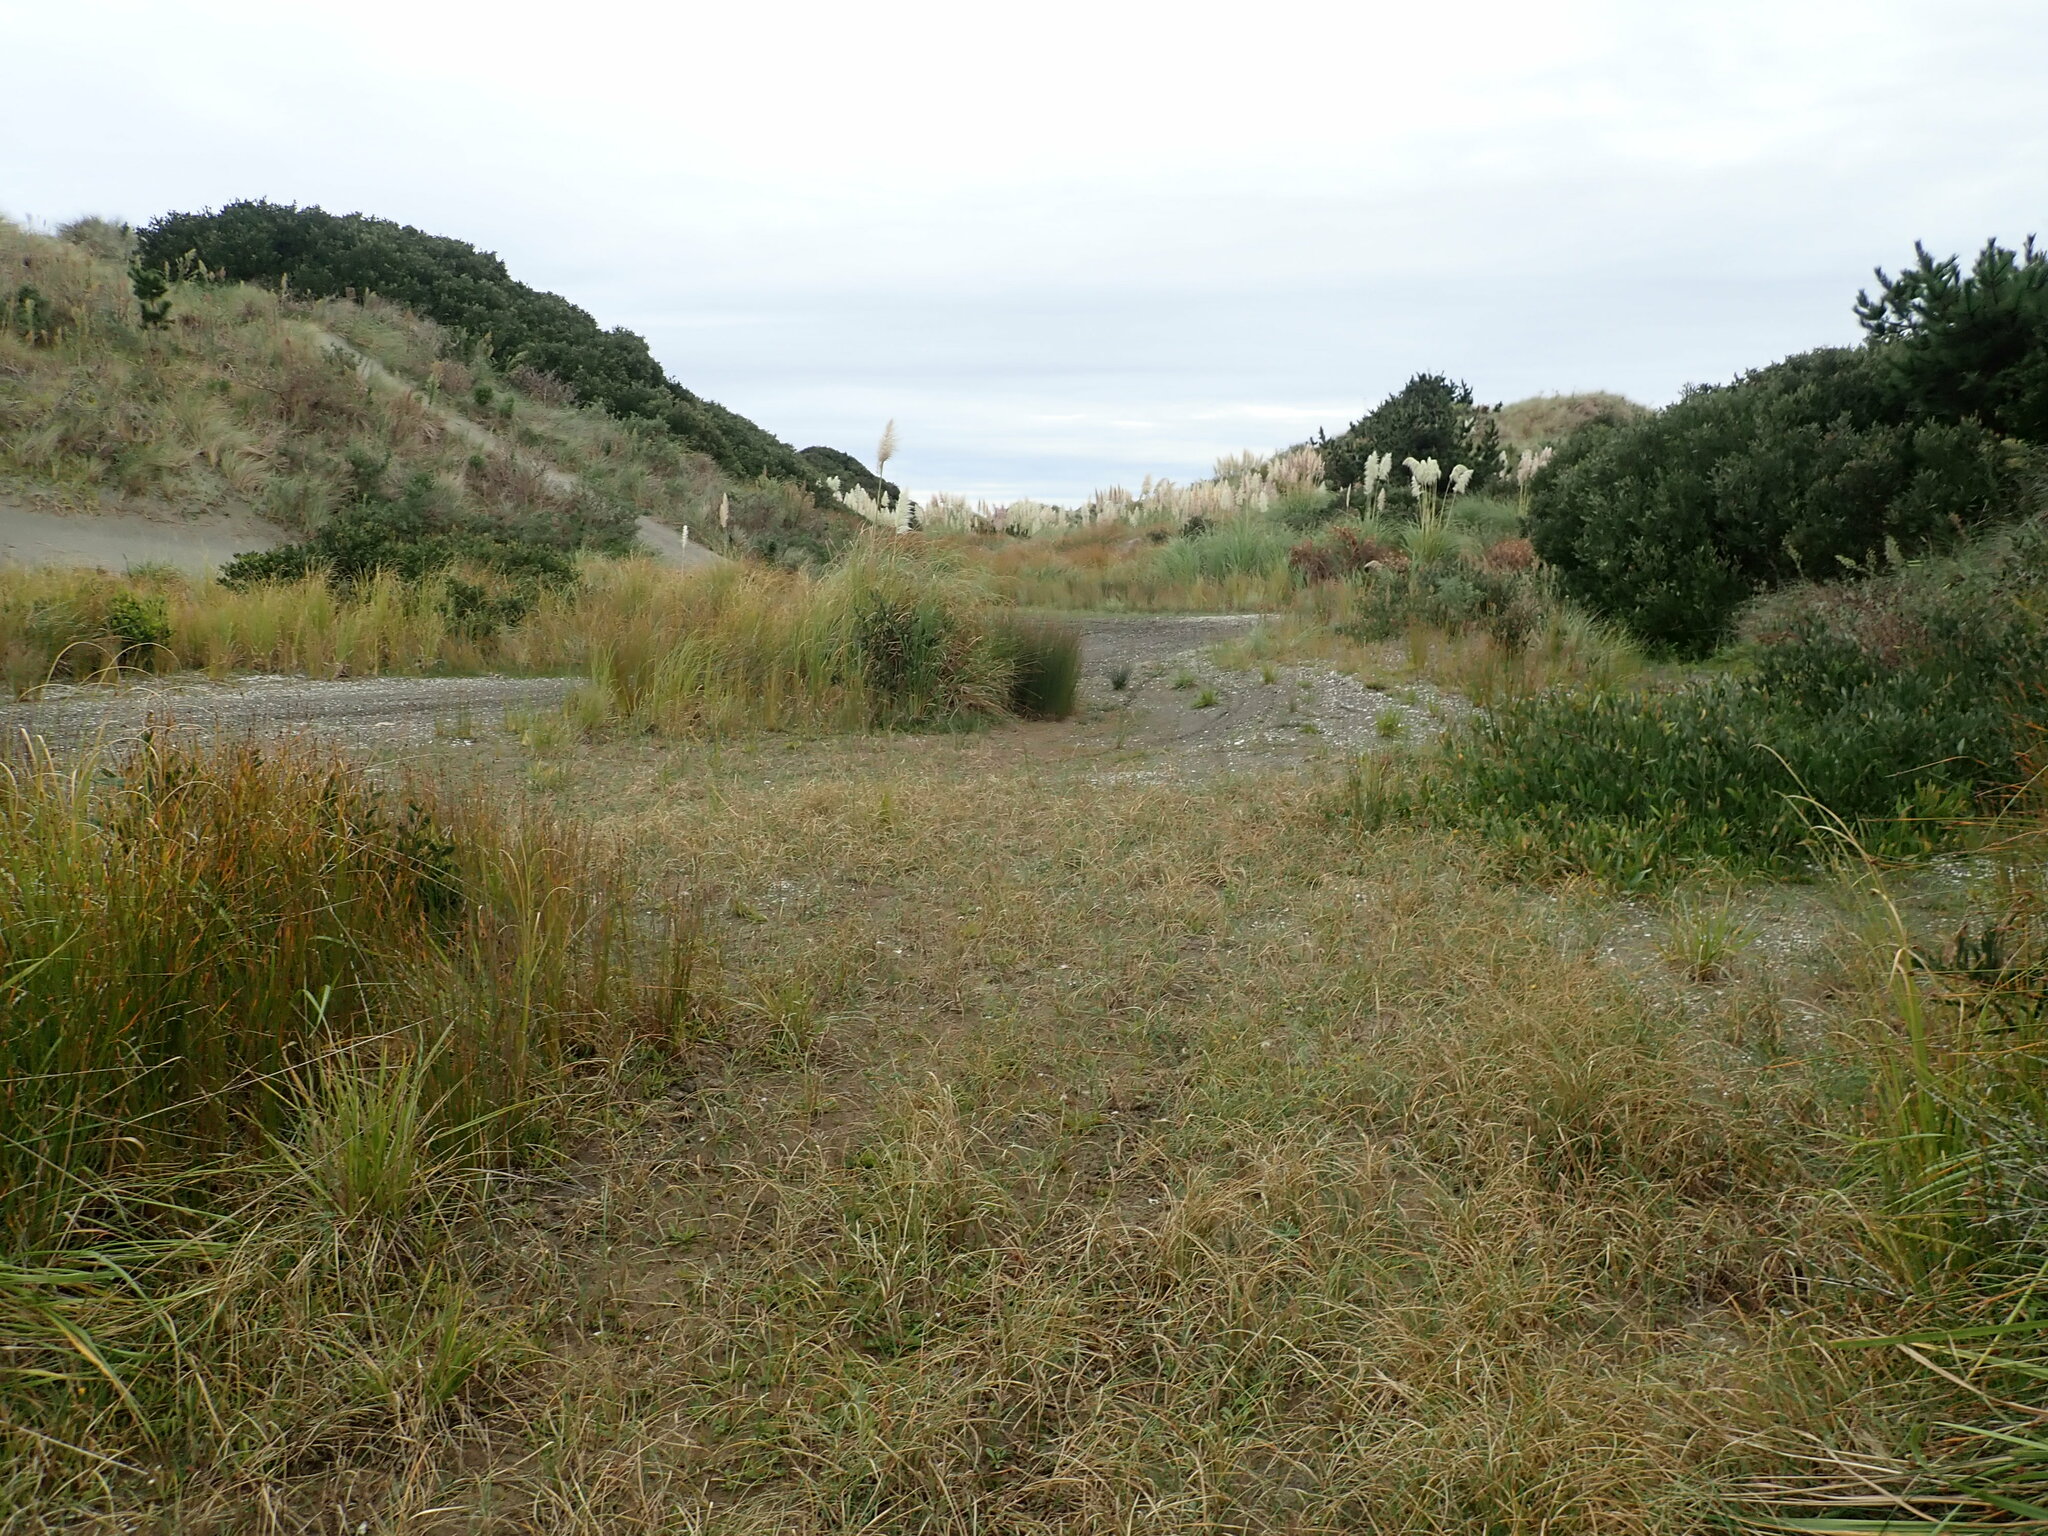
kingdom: Plantae
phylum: Tracheophyta
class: Magnoliopsida
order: Fabales
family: Fabaceae
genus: Acacia
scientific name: Acacia longifolia
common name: Sydney golden wattle
